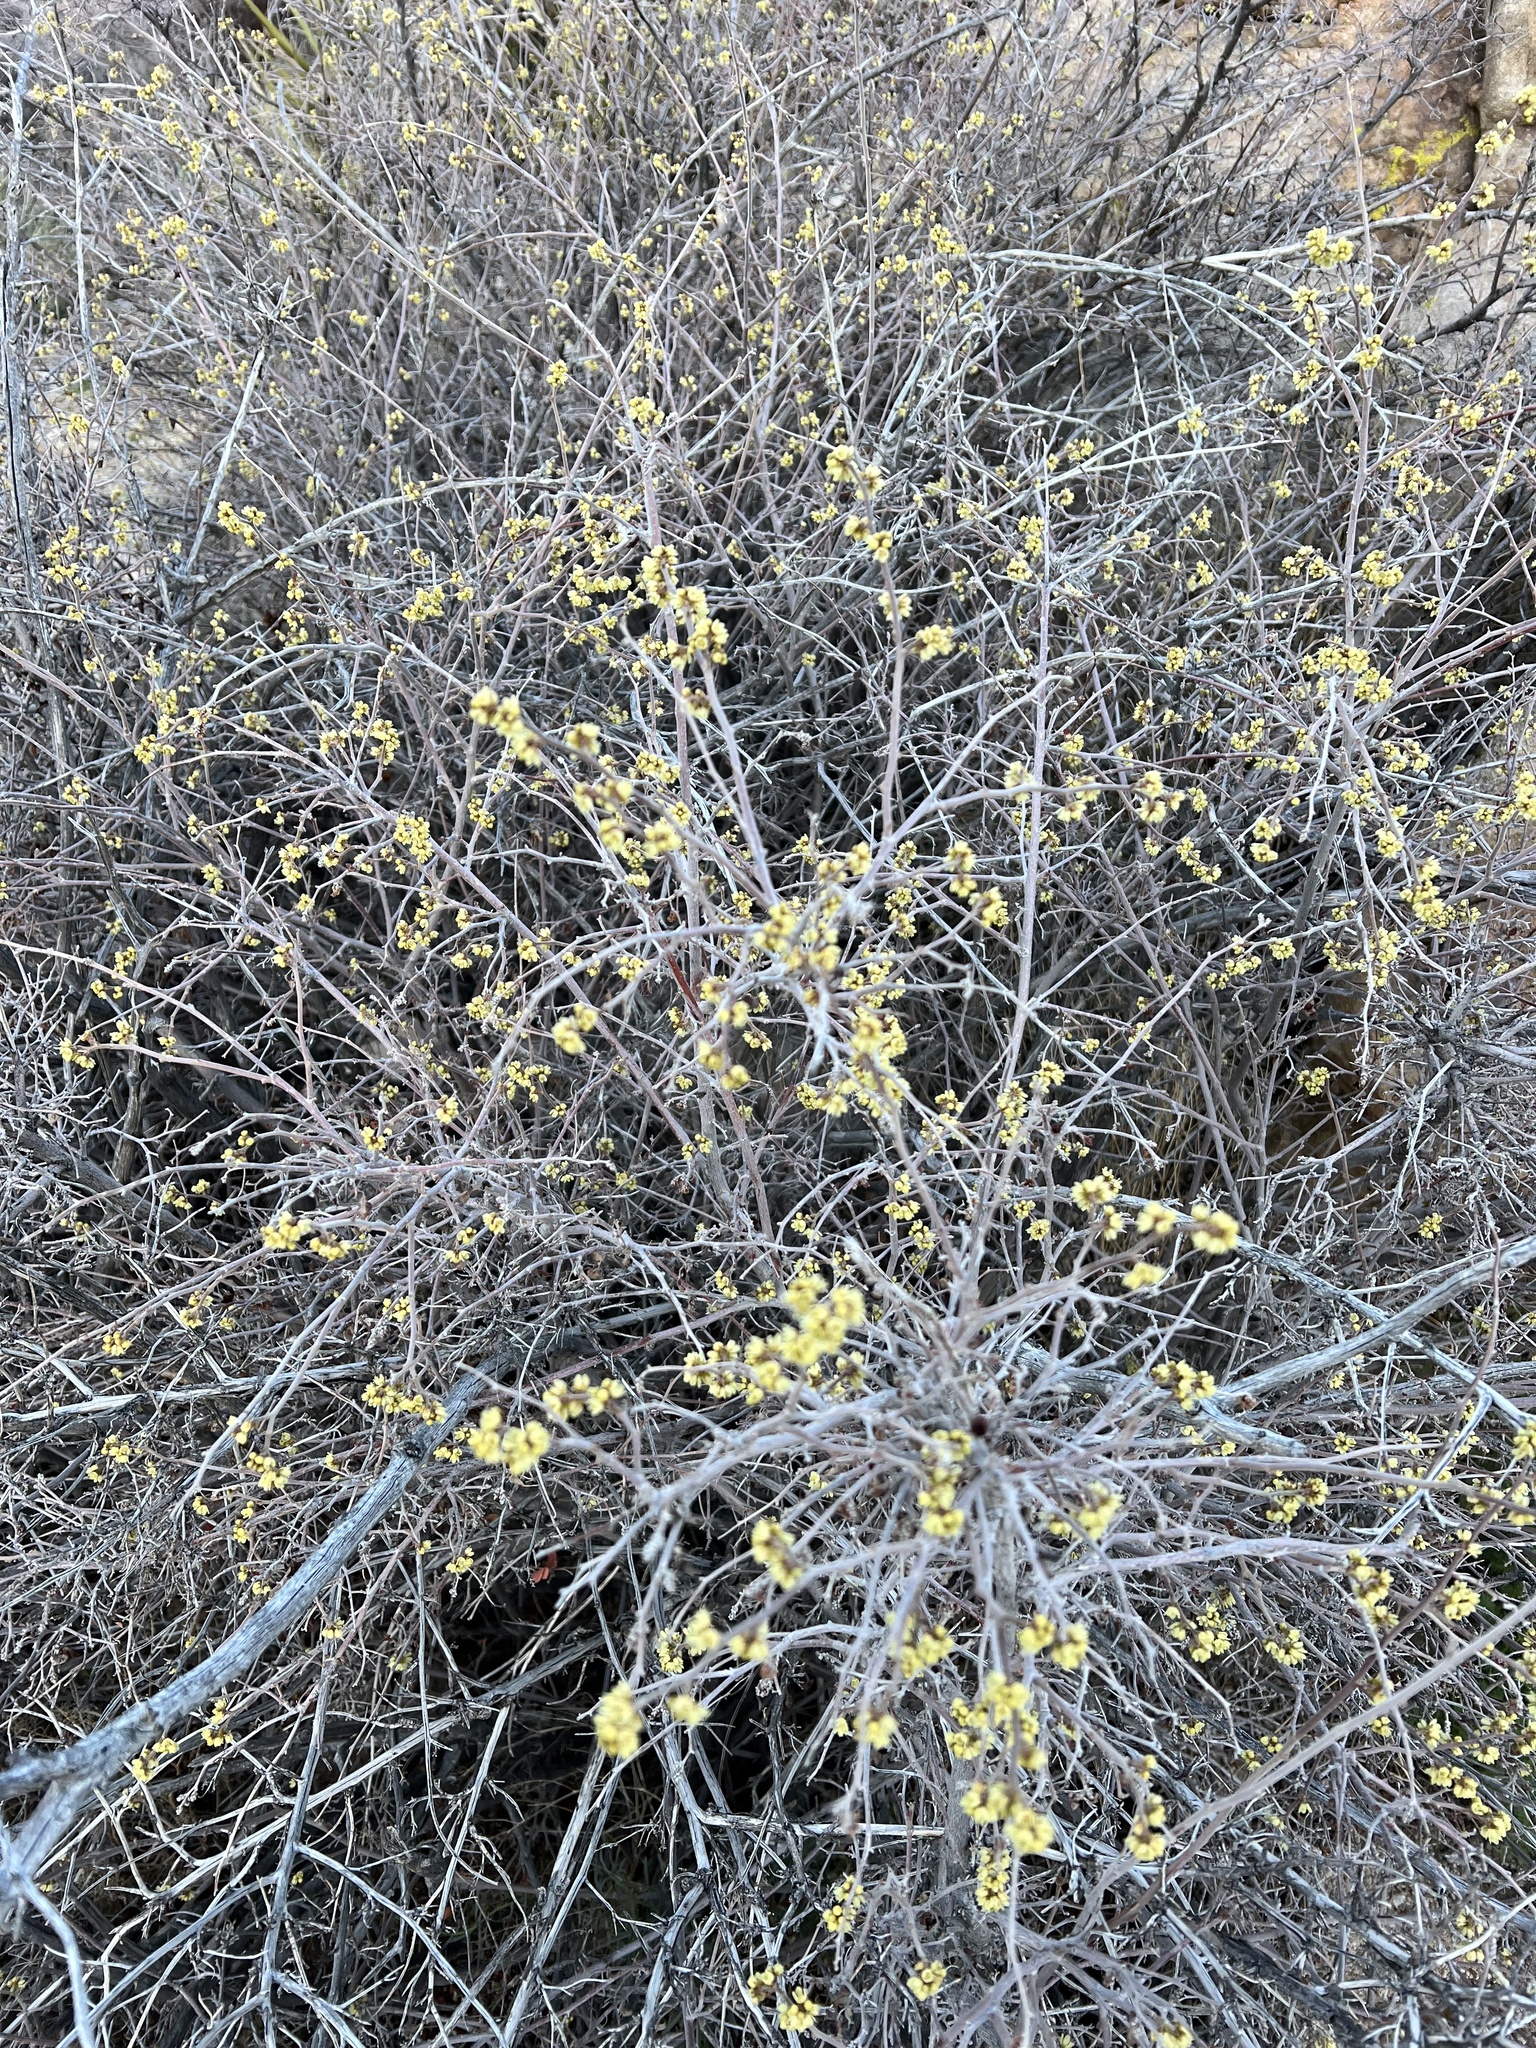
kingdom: Plantae
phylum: Tracheophyta
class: Magnoliopsida
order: Sapindales
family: Anacardiaceae
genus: Rhus
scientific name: Rhus aromatica
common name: Aromatic sumac
